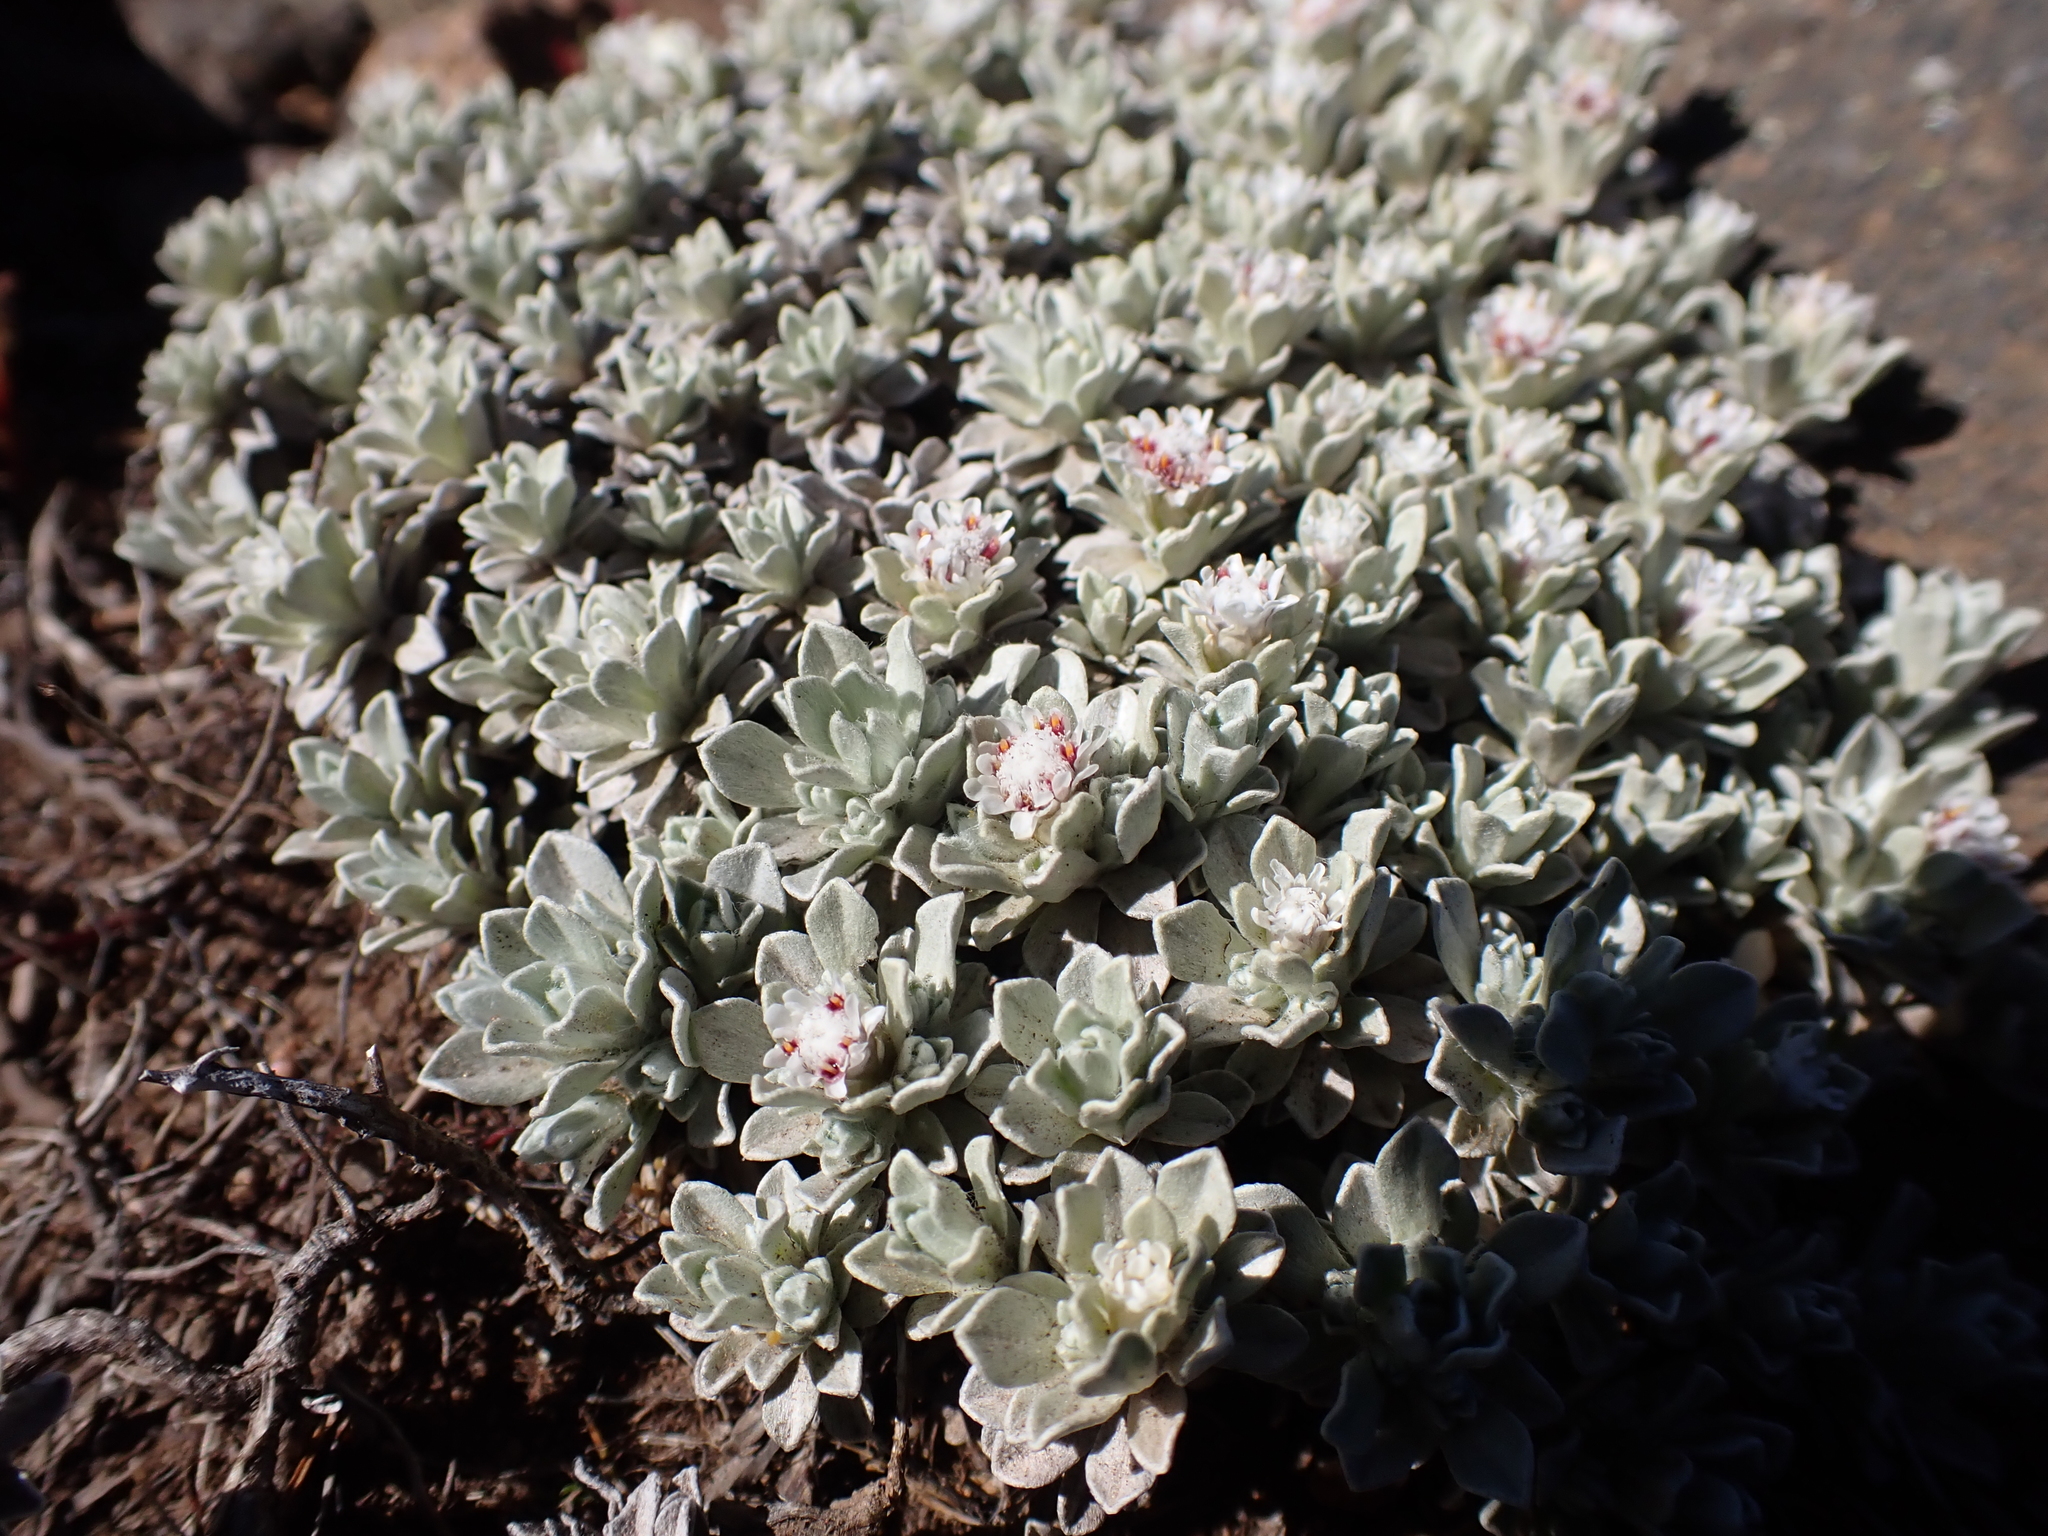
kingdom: Plantae
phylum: Tracheophyta
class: Magnoliopsida
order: Asterales
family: Asteraceae
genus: Ewartia
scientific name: Ewartia nubigena
